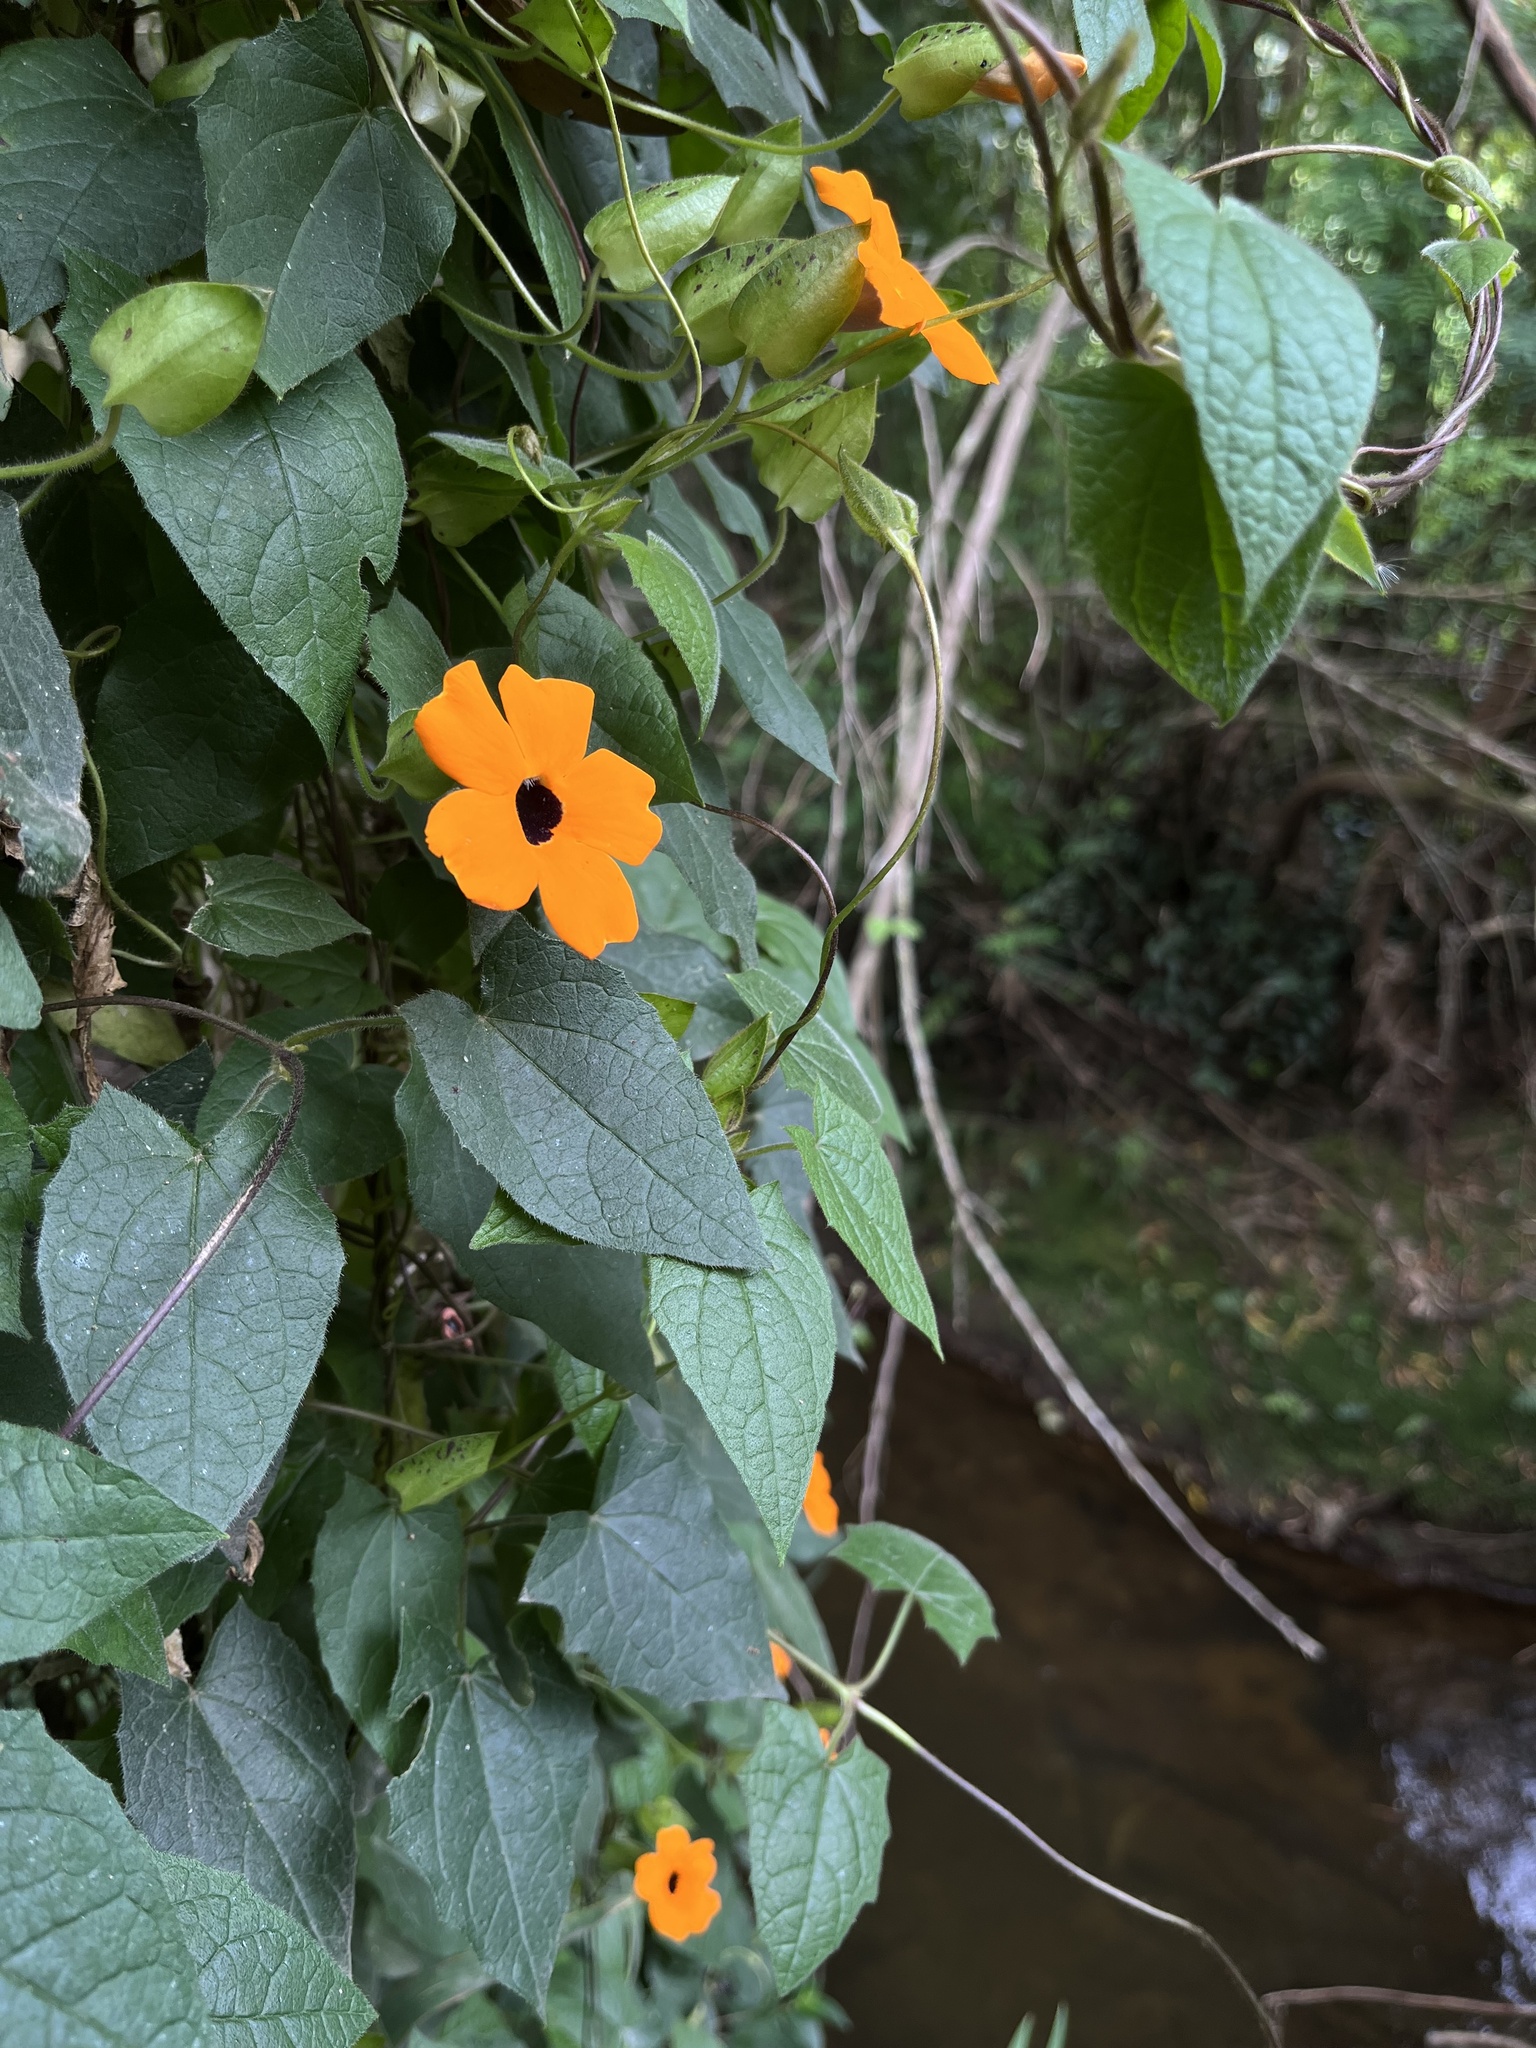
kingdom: Plantae
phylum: Tracheophyta
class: Magnoliopsida
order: Lamiales
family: Acanthaceae
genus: Thunbergia
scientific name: Thunbergia alata
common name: Blackeyed susan vine
